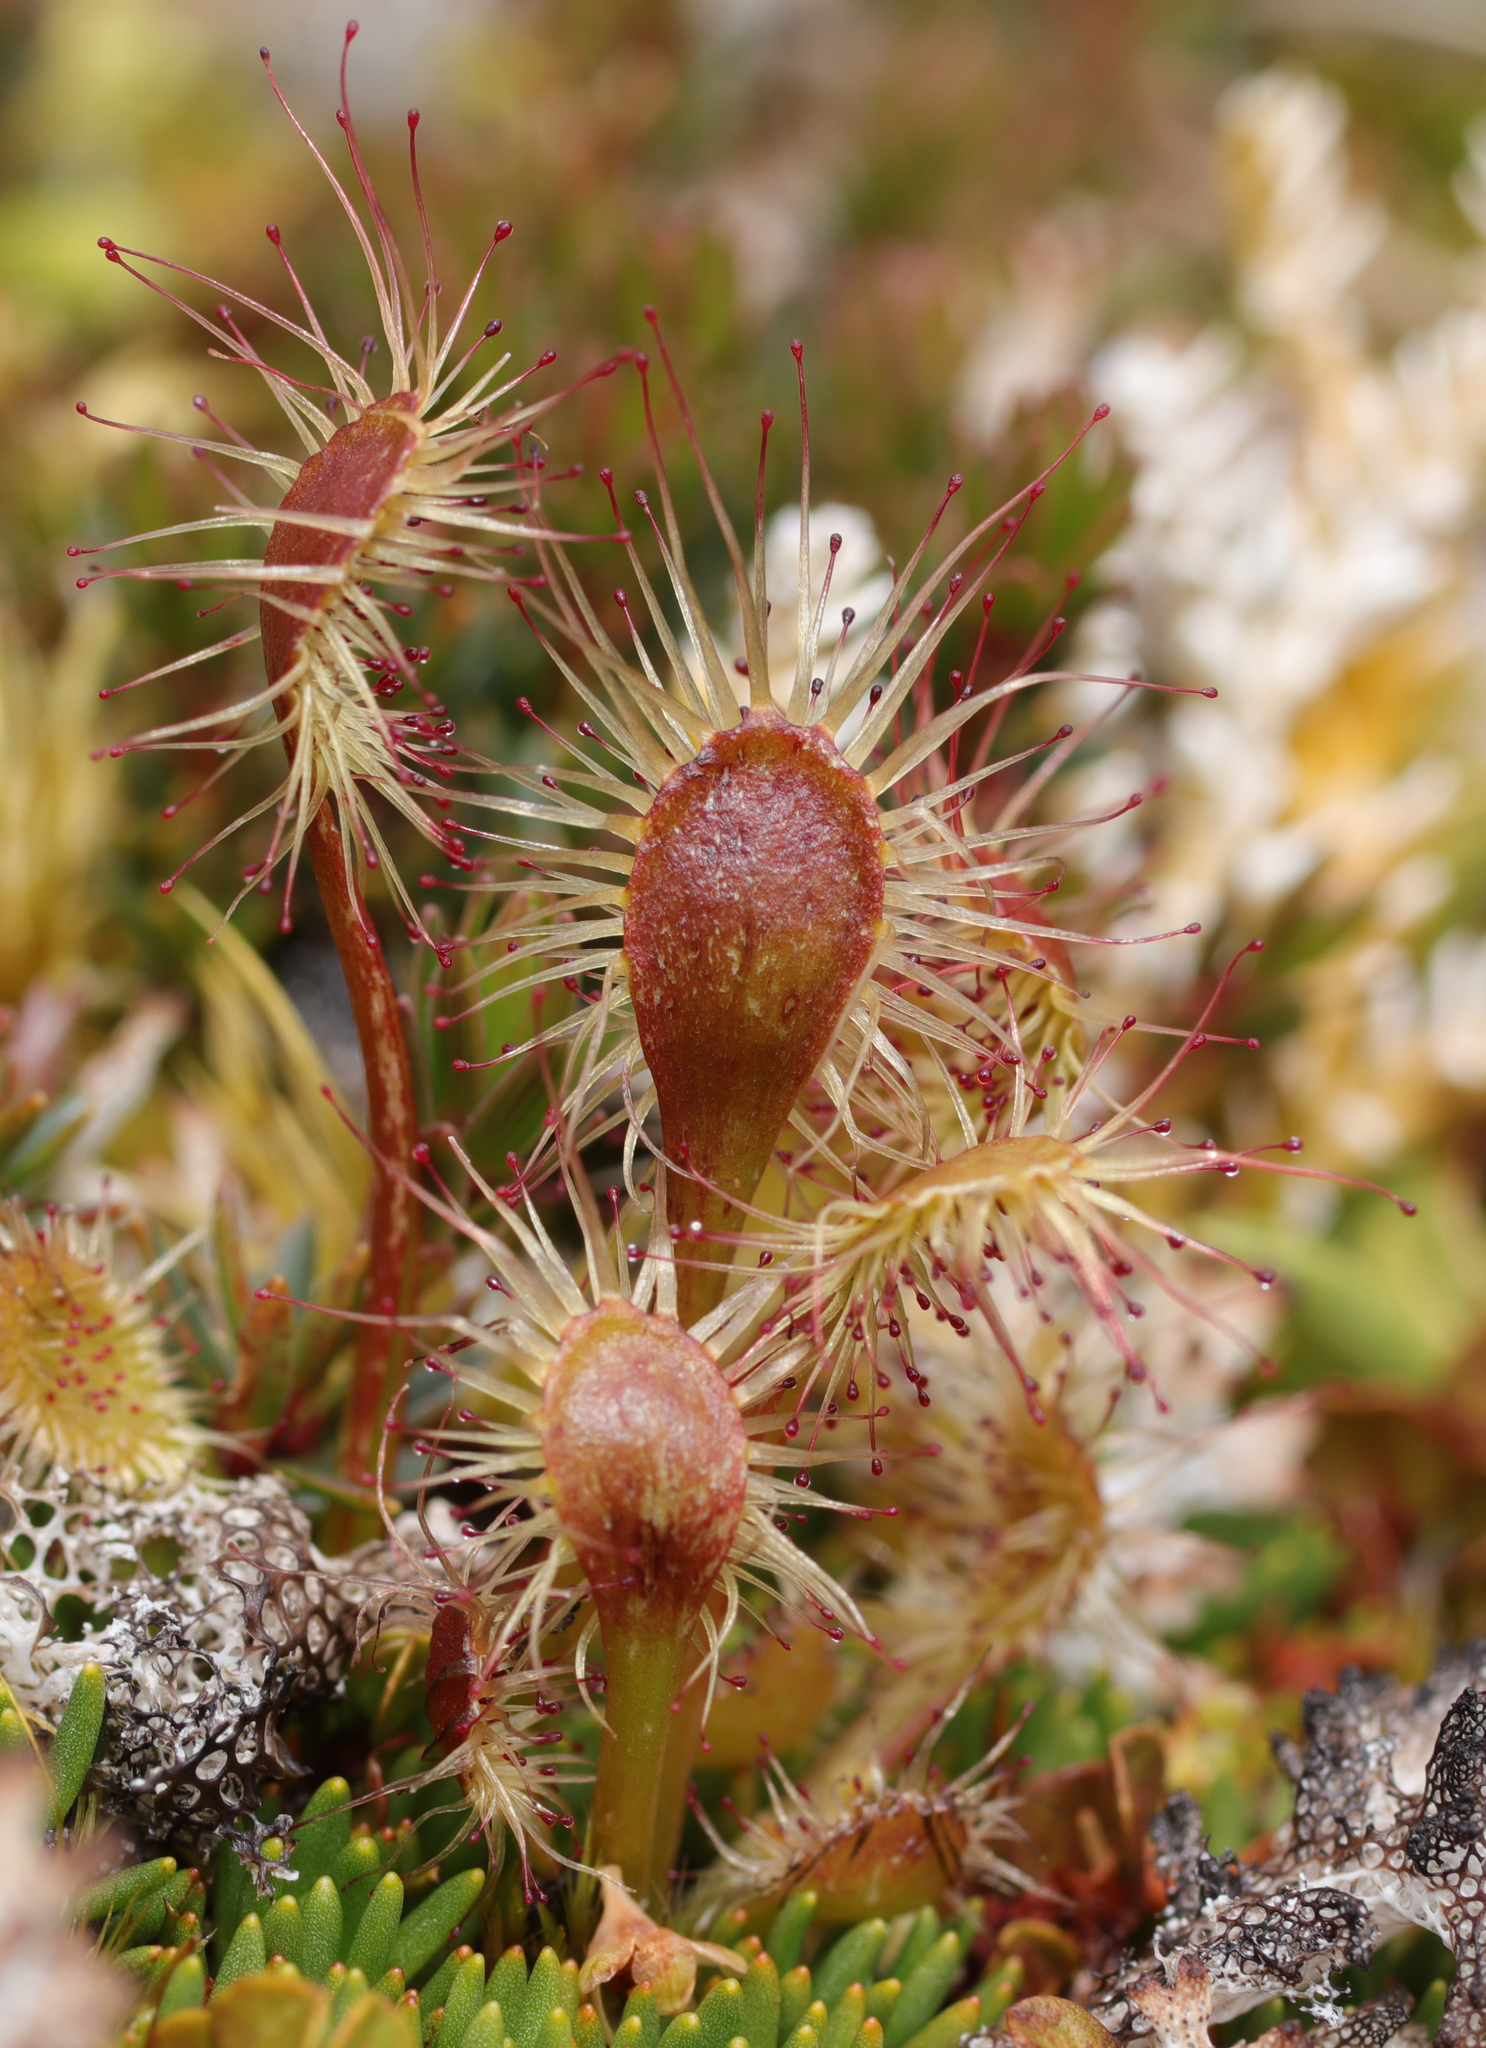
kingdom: Plantae
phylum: Tracheophyta
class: Magnoliopsida
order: Caryophyllales
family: Droseraceae
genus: Drosera
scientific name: Drosera stenopetala
